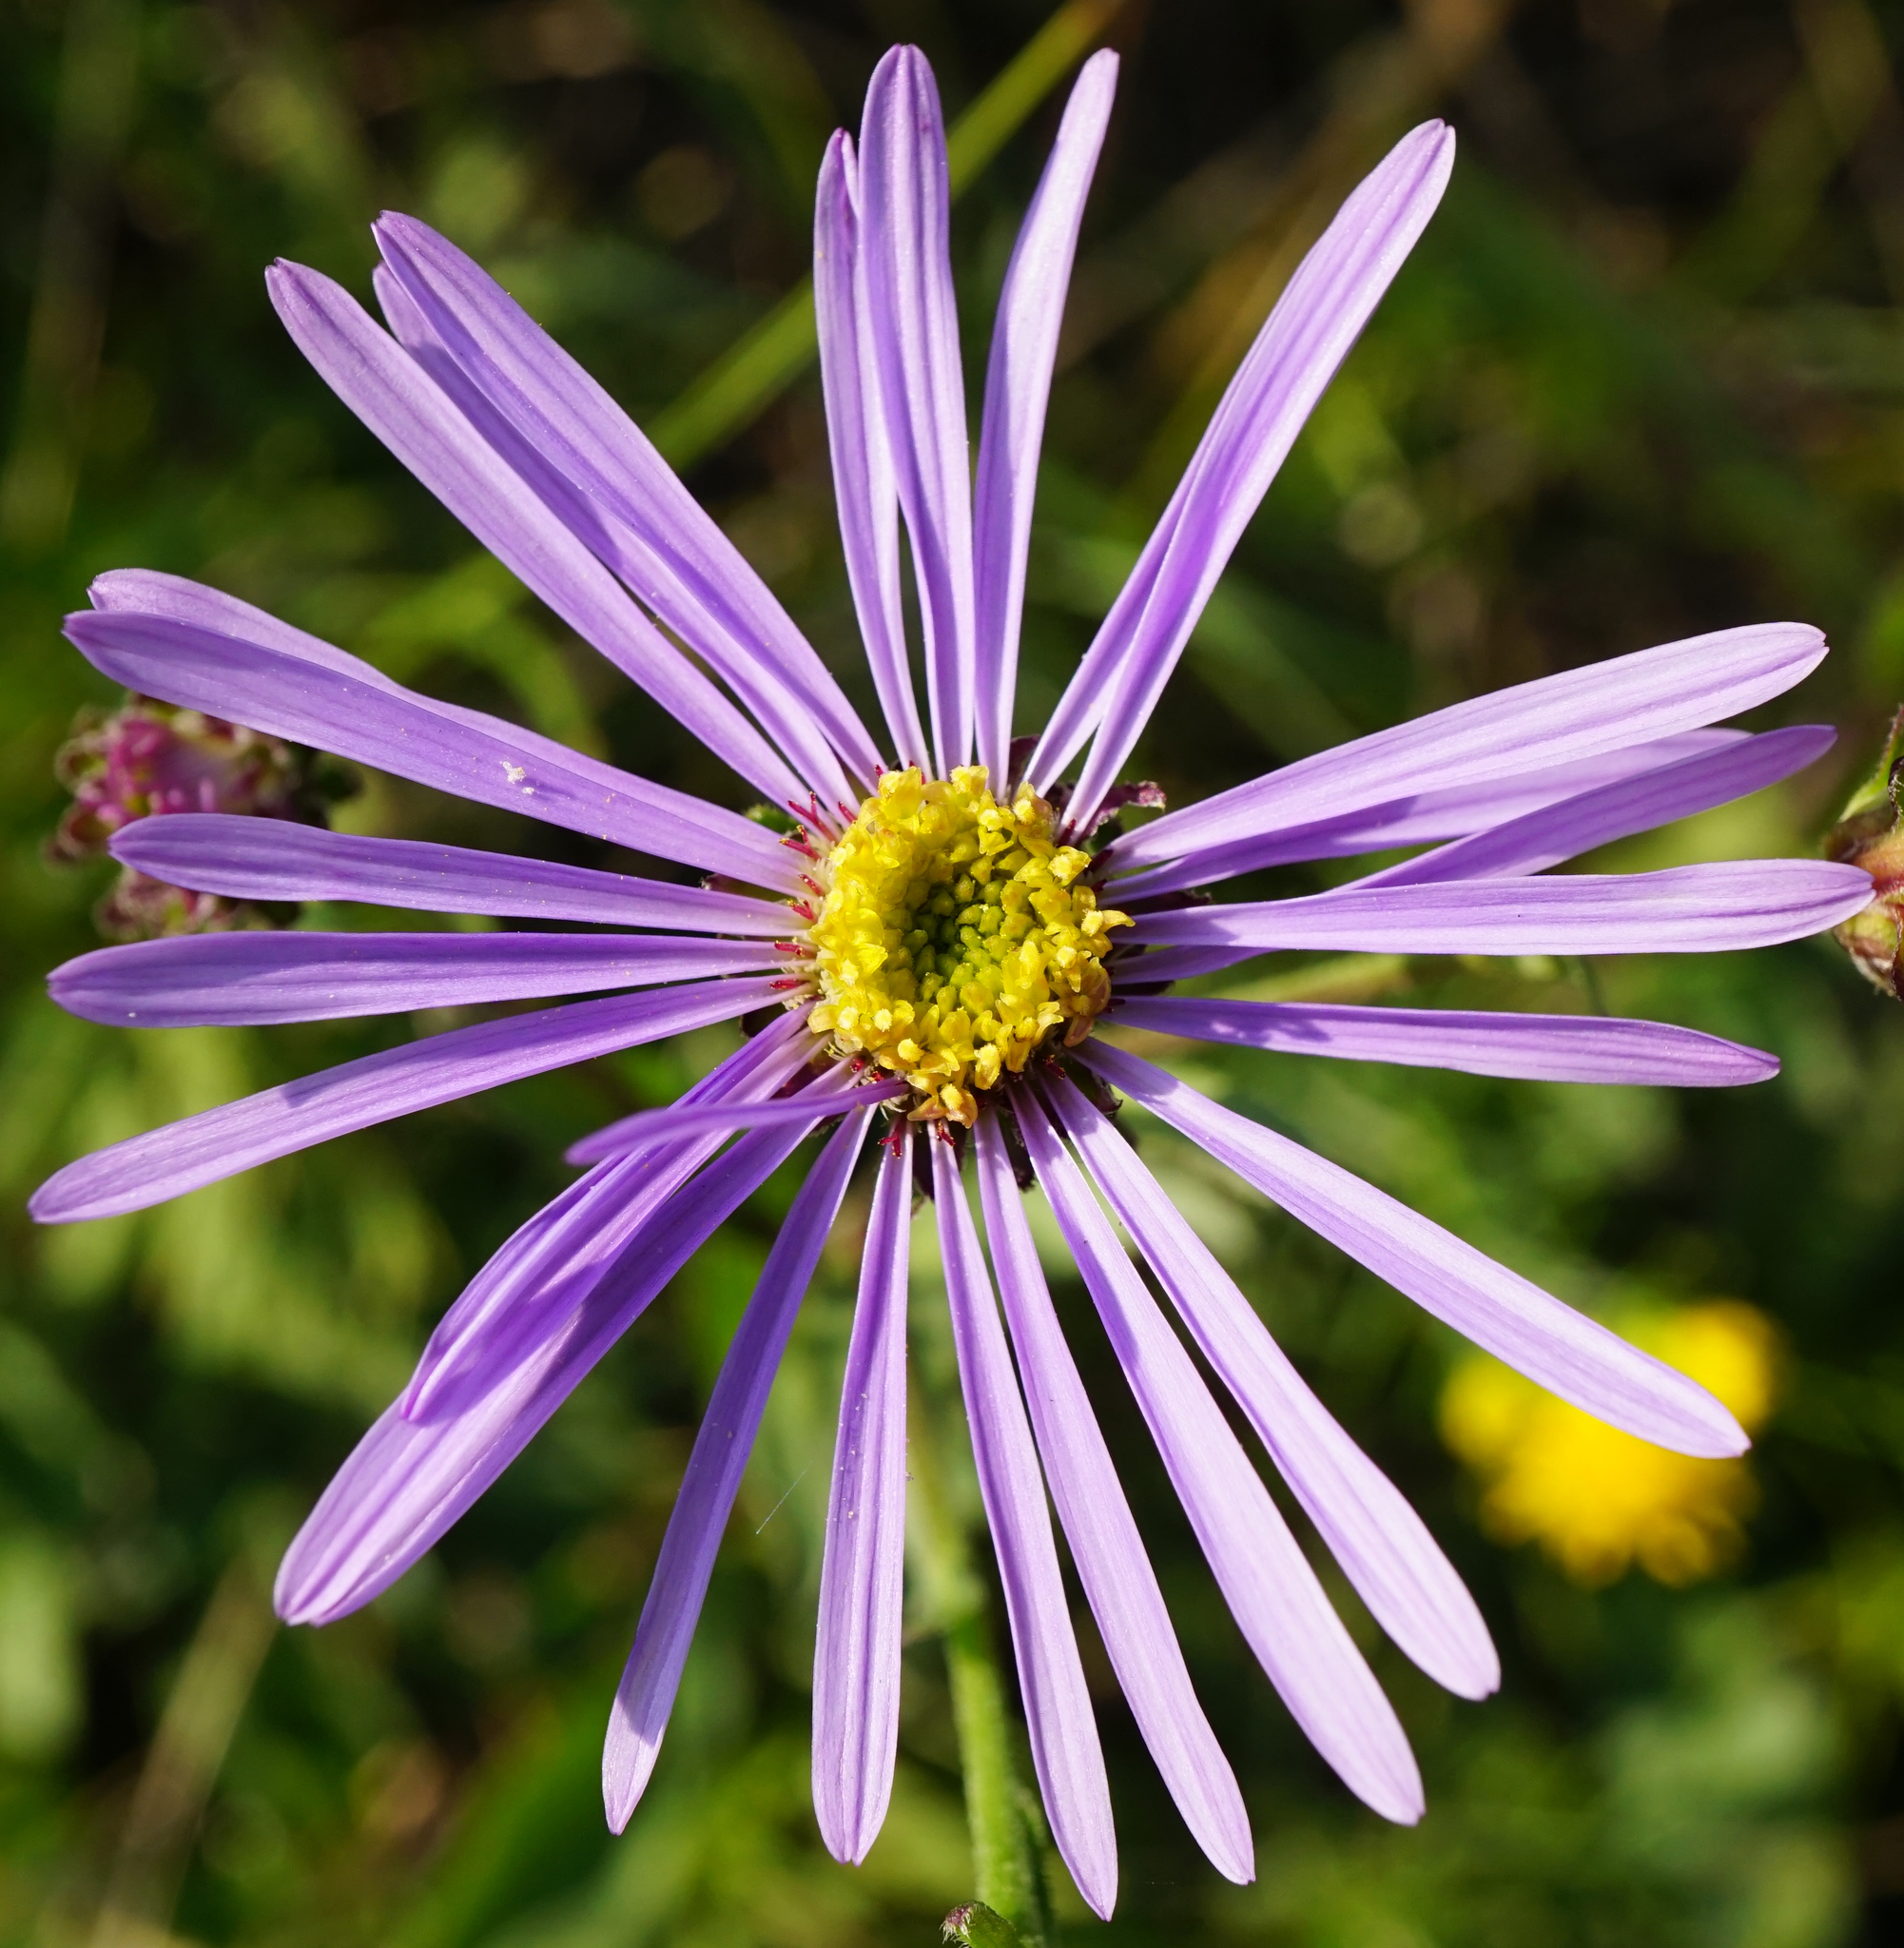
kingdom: Plantae
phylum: Tracheophyta
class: Magnoliopsida
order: Asterales
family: Asteraceae
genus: Aster
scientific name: Aster amellus
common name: European michaelmas daisy
